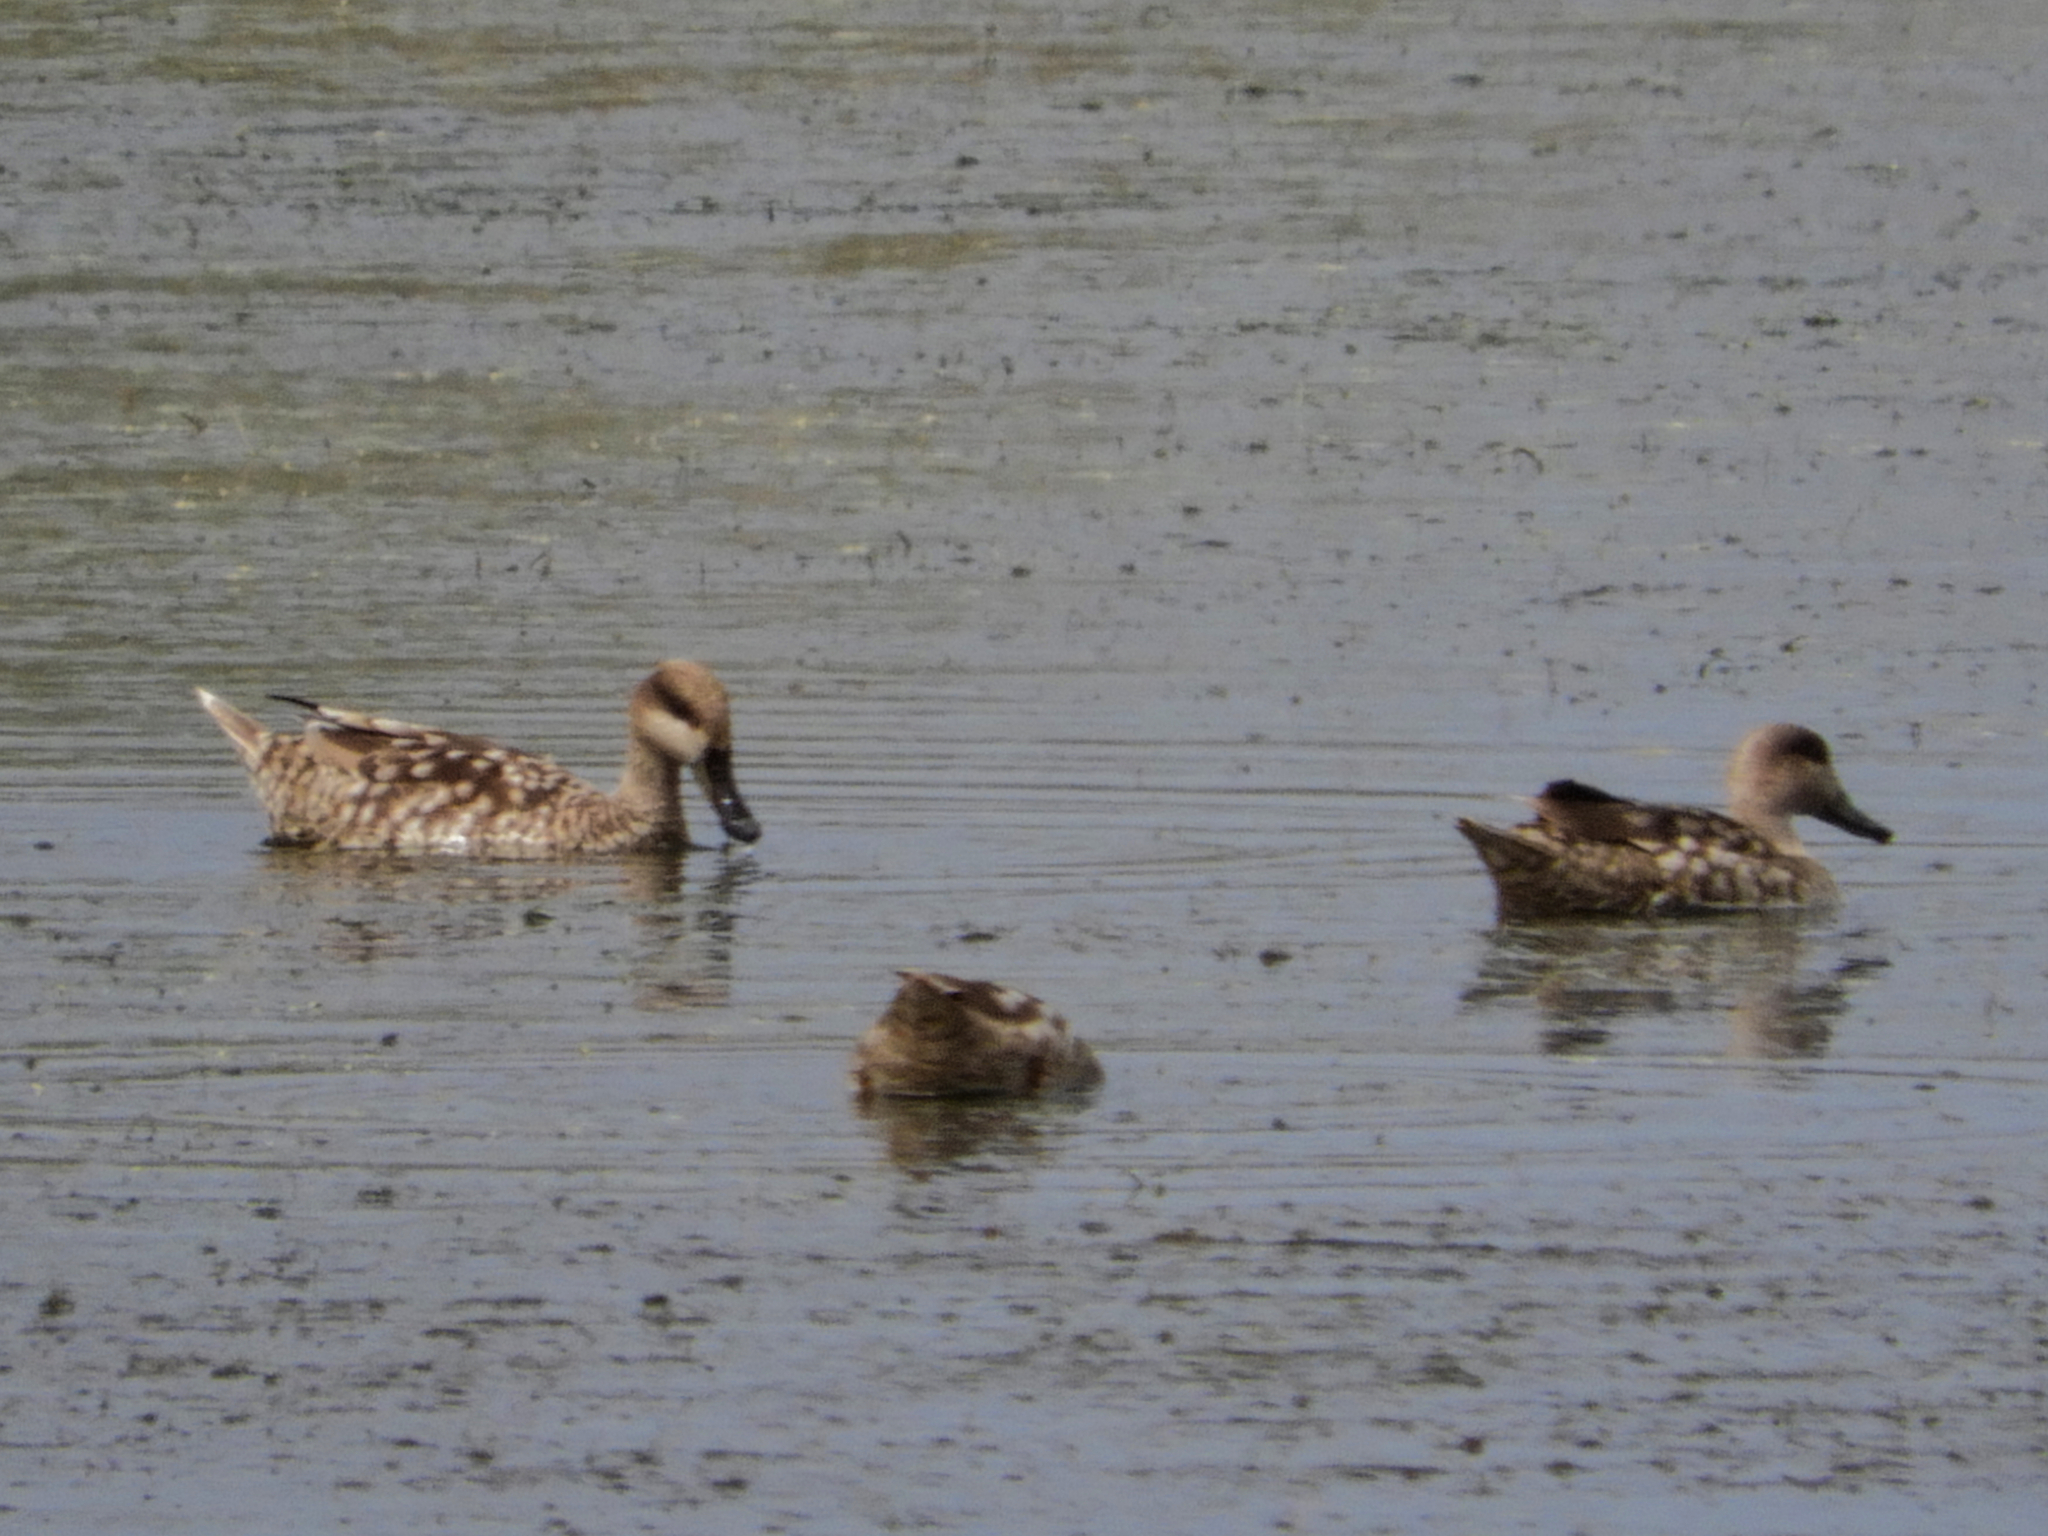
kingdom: Animalia
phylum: Chordata
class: Aves
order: Anseriformes
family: Anatidae
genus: Marmaronetta
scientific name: Marmaronetta angustirostris
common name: Marbled duck
